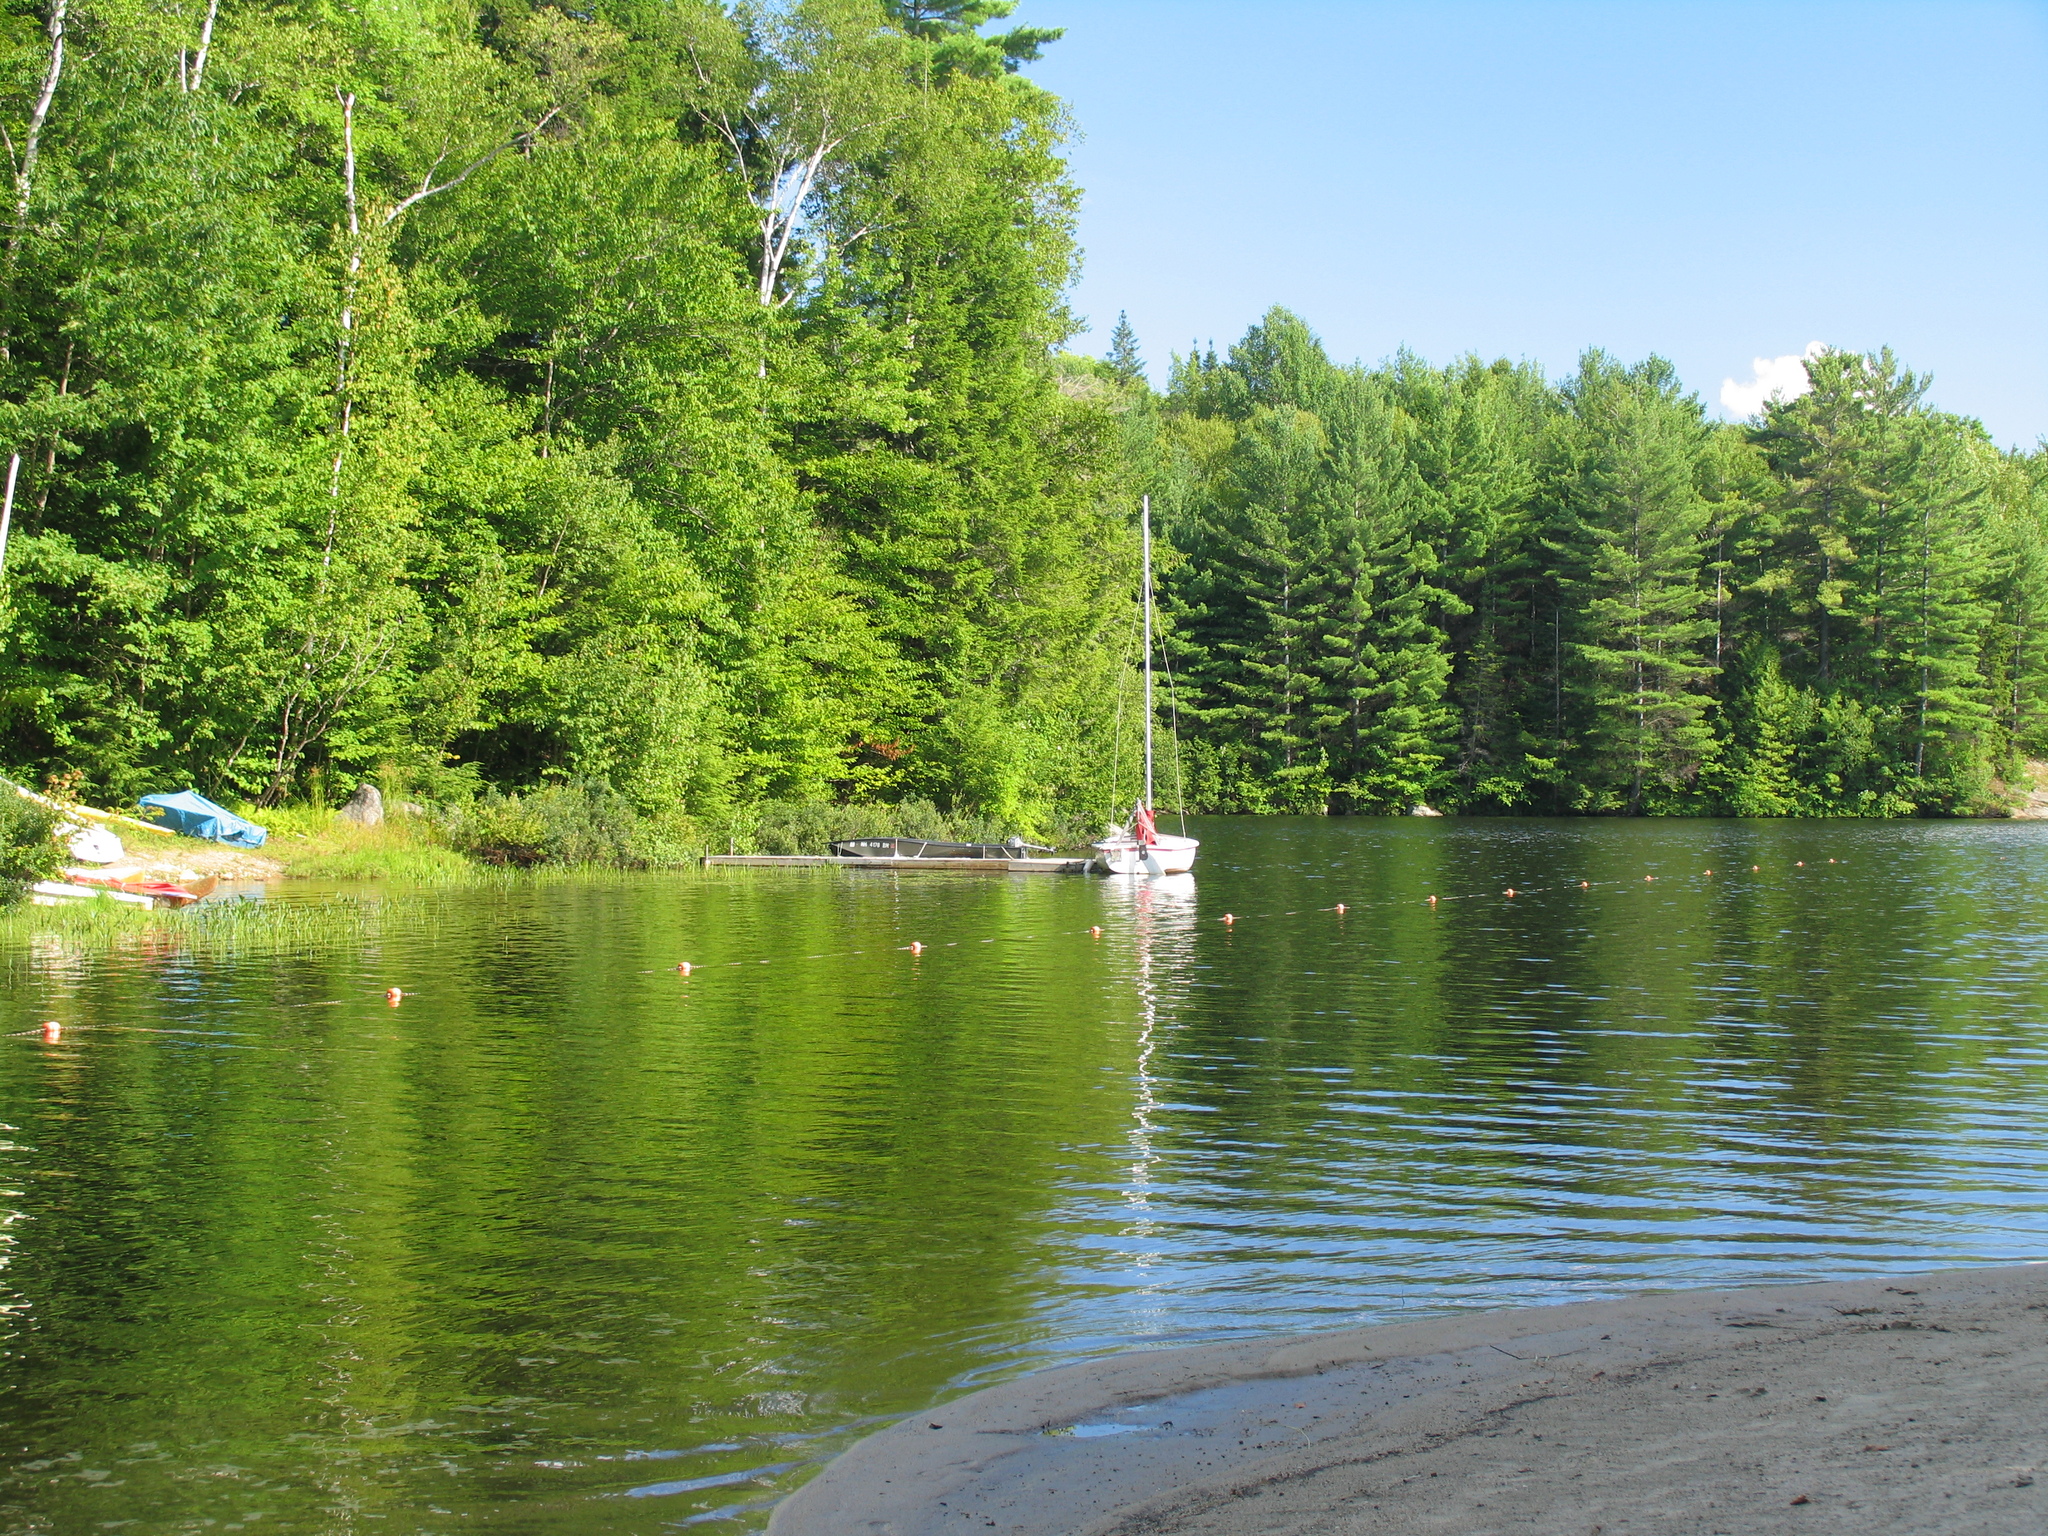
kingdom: Plantae
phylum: Tracheophyta
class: Pinopsida
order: Pinales
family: Pinaceae
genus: Pinus
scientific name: Pinus strobus
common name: Weymouth pine
